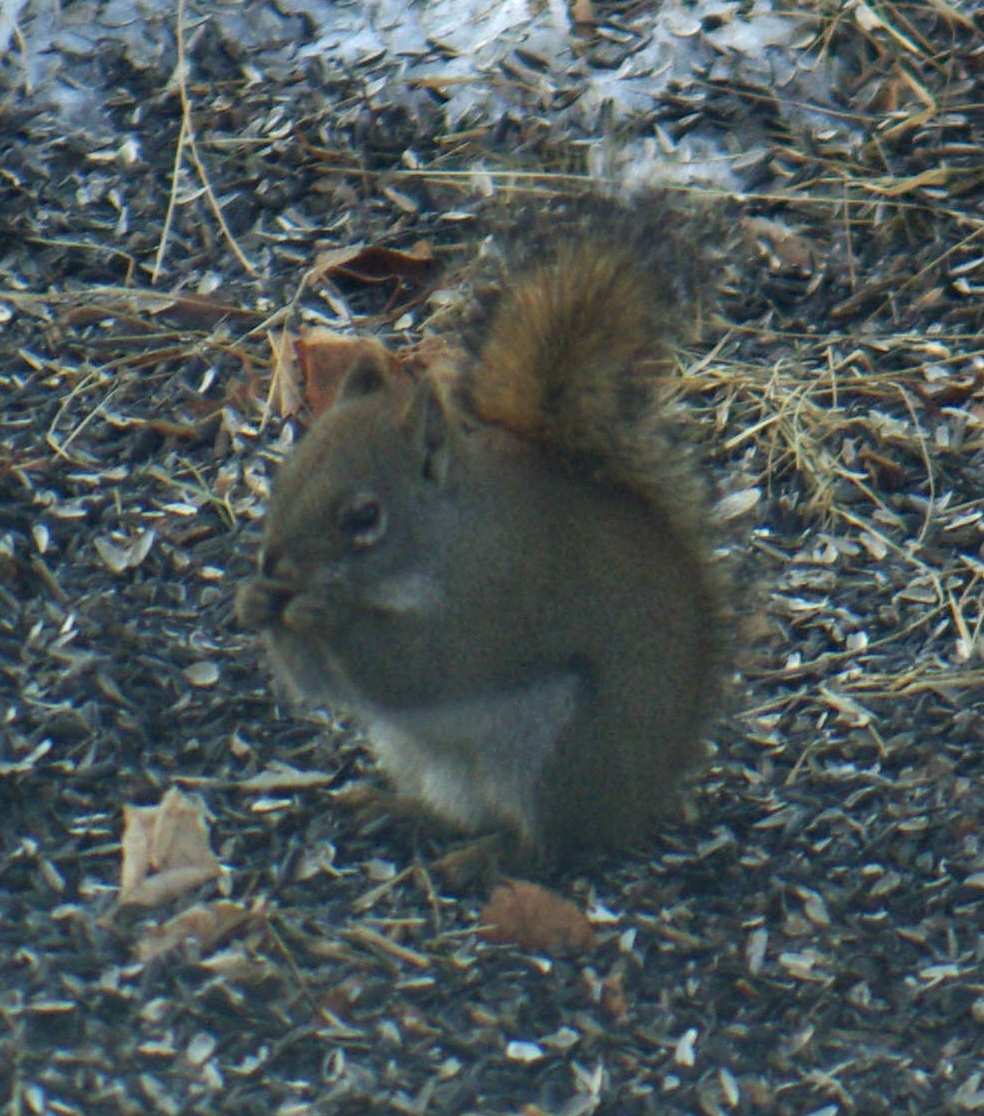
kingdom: Animalia
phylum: Chordata
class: Mammalia
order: Rodentia
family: Sciuridae
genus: Tamiasciurus
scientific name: Tamiasciurus hudsonicus
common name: Red squirrel
